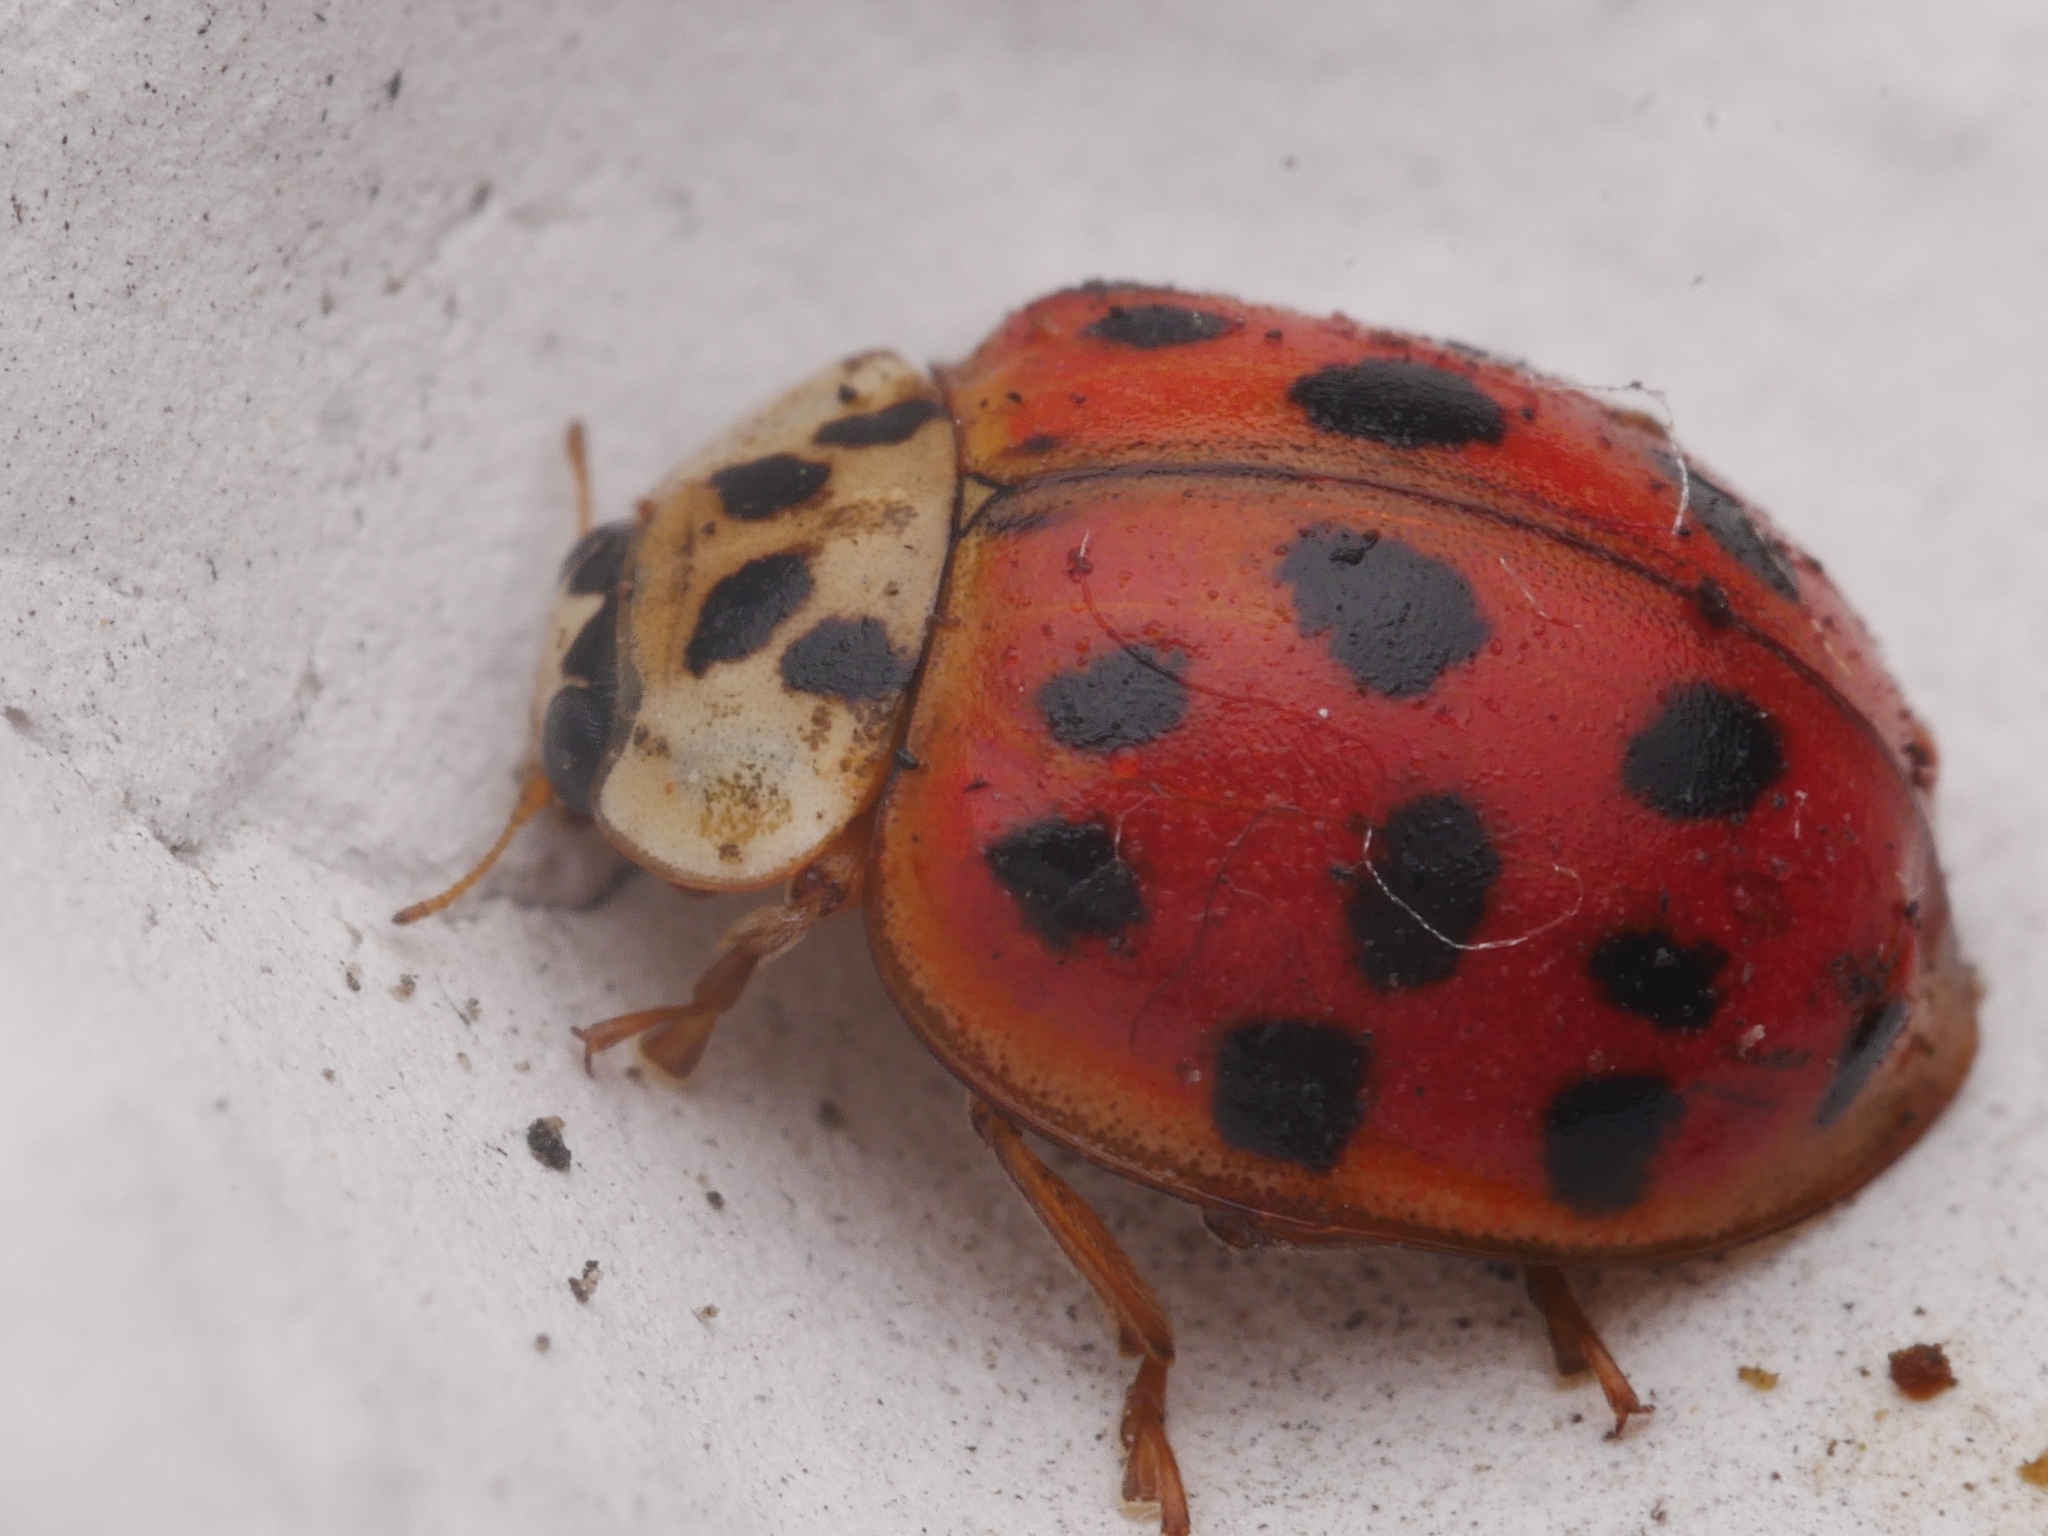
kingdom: Animalia
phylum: Arthropoda
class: Insecta
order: Coleoptera
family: Coccinellidae
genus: Harmonia
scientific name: Harmonia axyridis
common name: Harlequin ladybird
